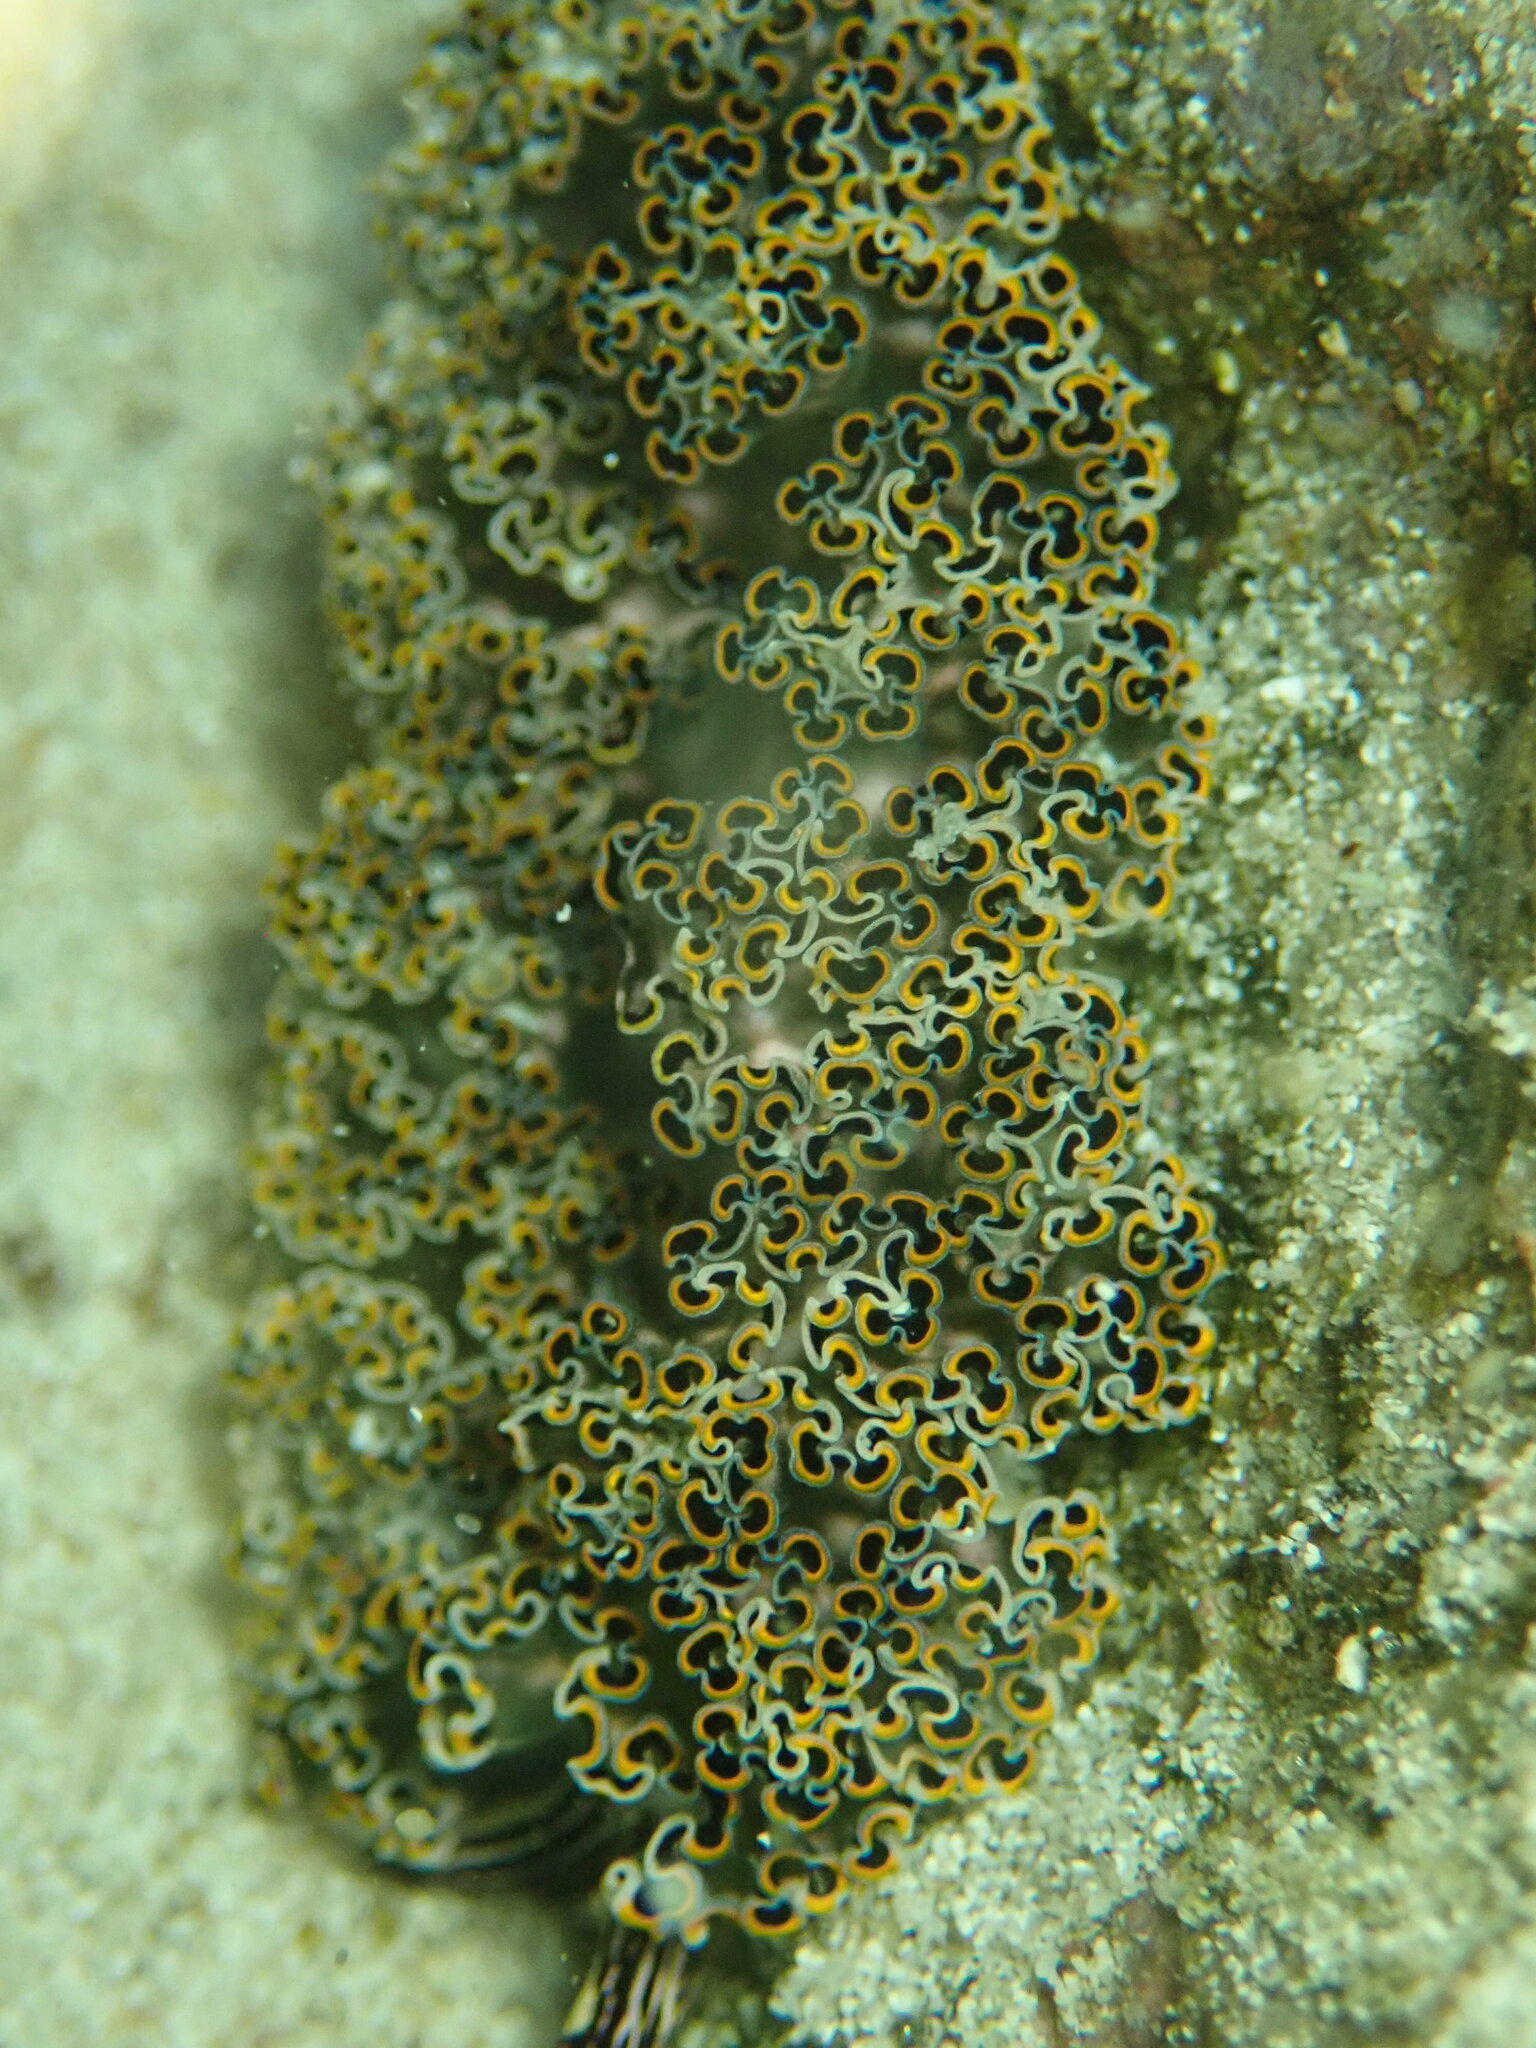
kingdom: Animalia
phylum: Mollusca
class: Gastropoda
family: Plakobranchidae
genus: Elysia
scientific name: Elysia diomedea
